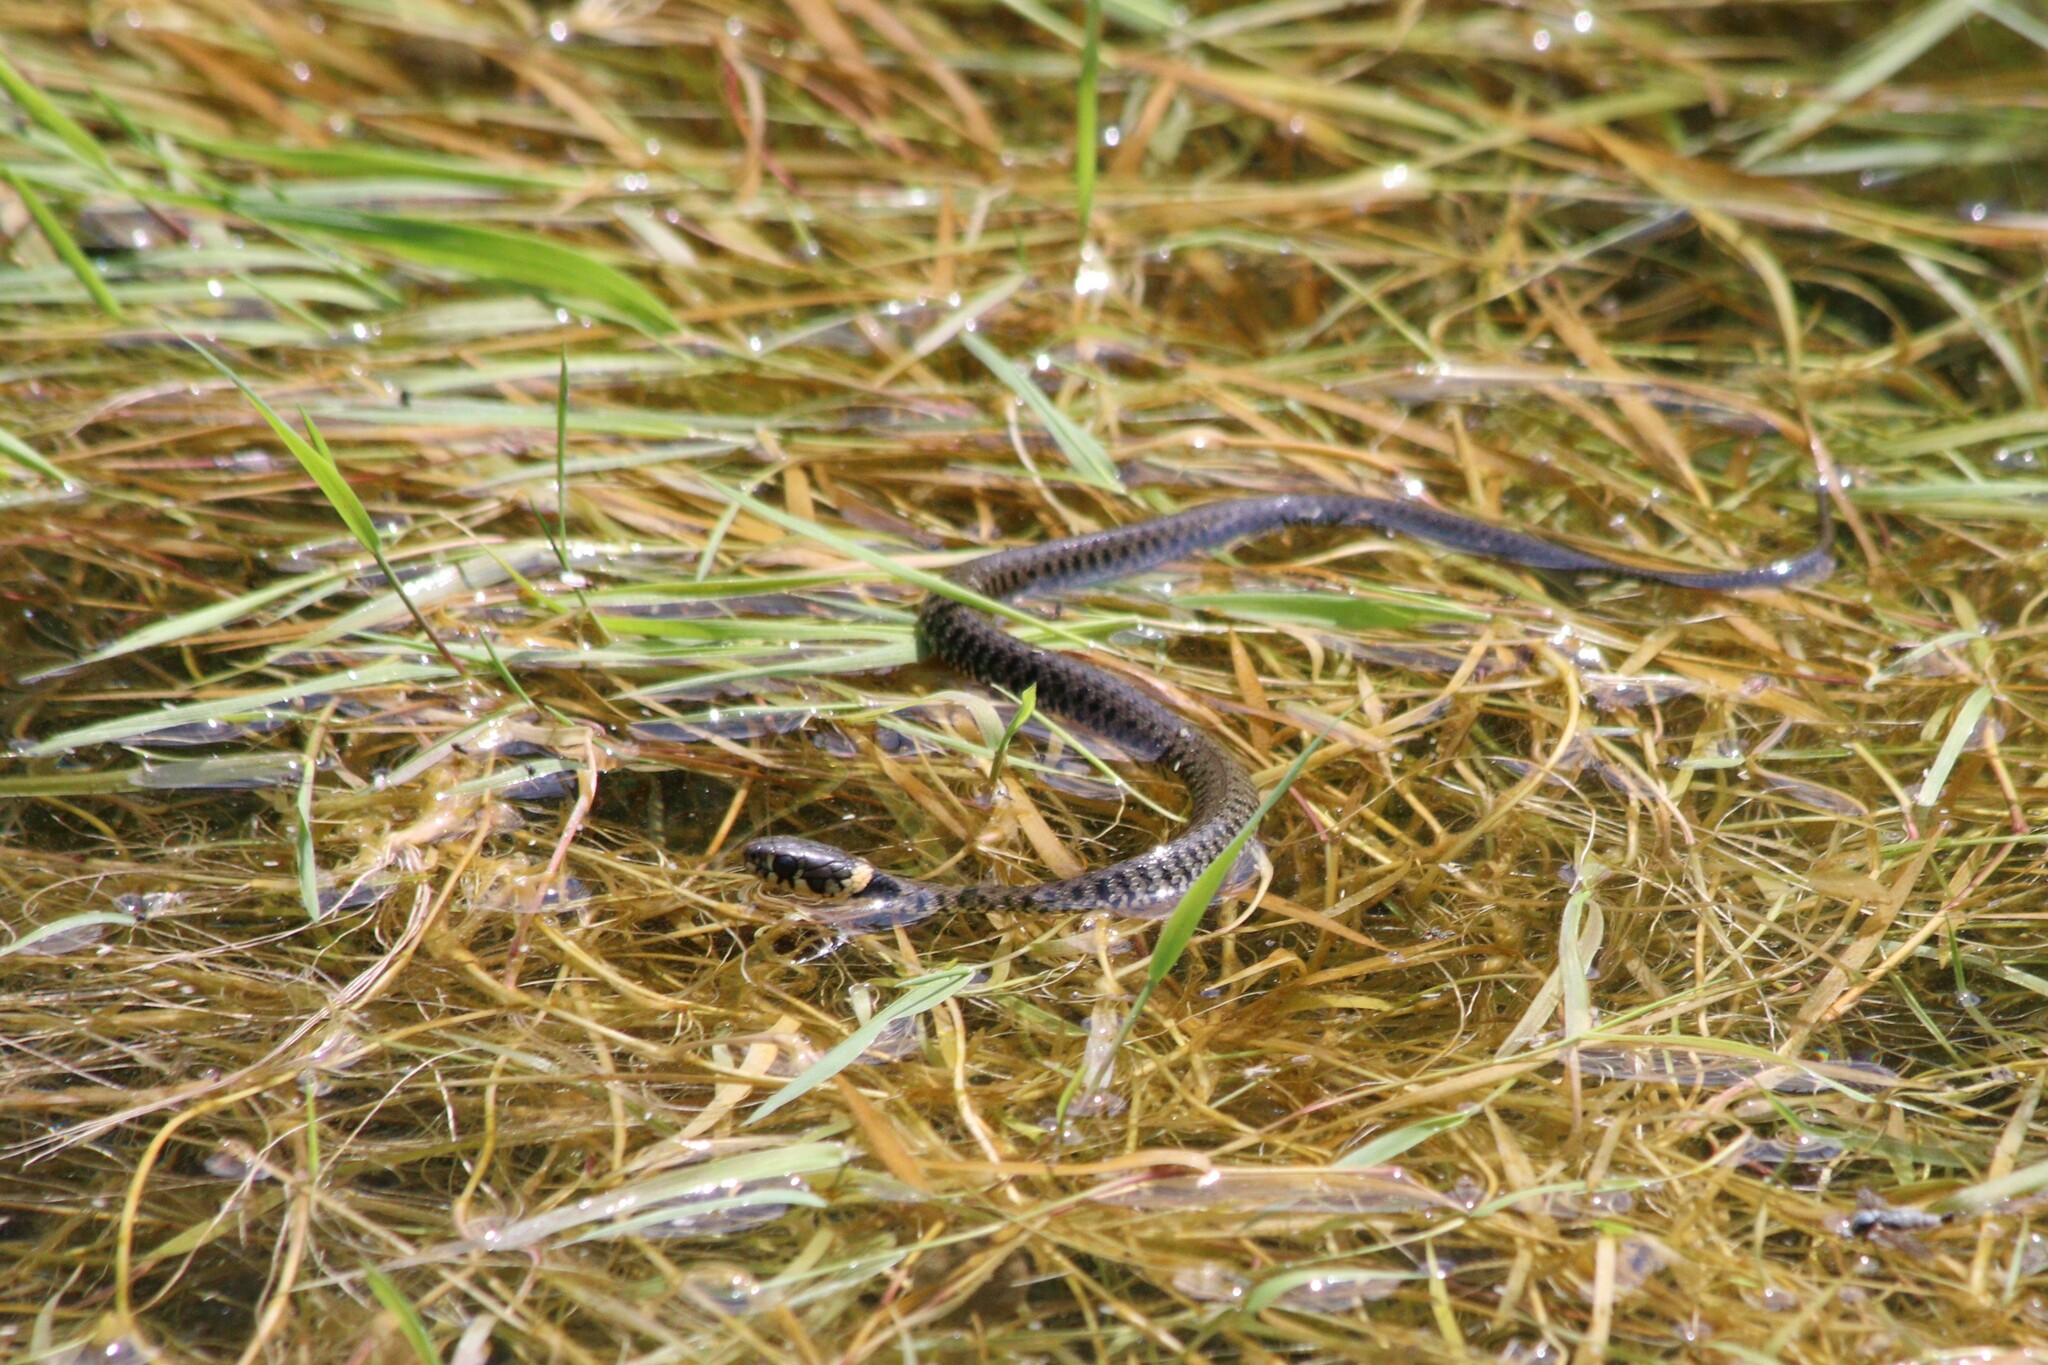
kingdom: Animalia
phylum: Chordata
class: Squamata
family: Colubridae
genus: Natrix
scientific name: Natrix helvetica
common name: Banded grass snake
